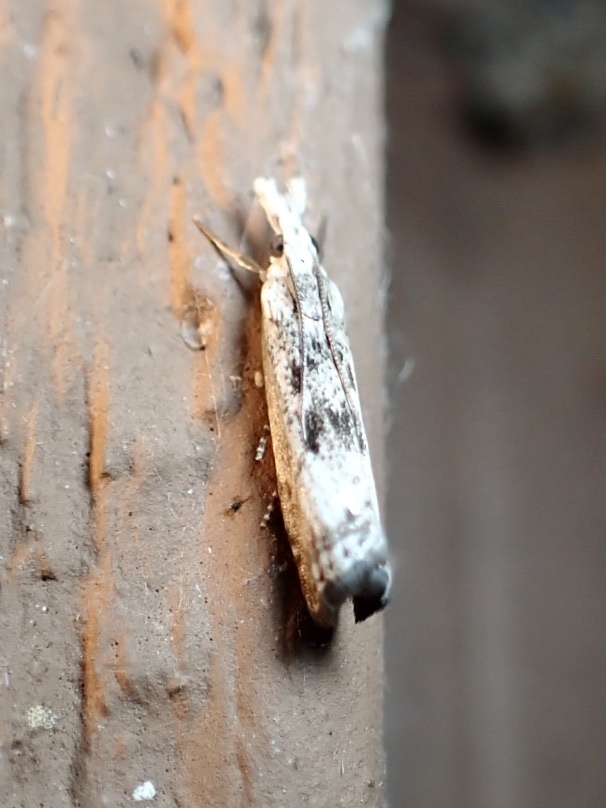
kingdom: Animalia
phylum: Arthropoda
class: Insecta
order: Lepidoptera
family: Crambidae
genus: Microcrambus
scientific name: Microcrambus elegans
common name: Elegant grass-veneer
